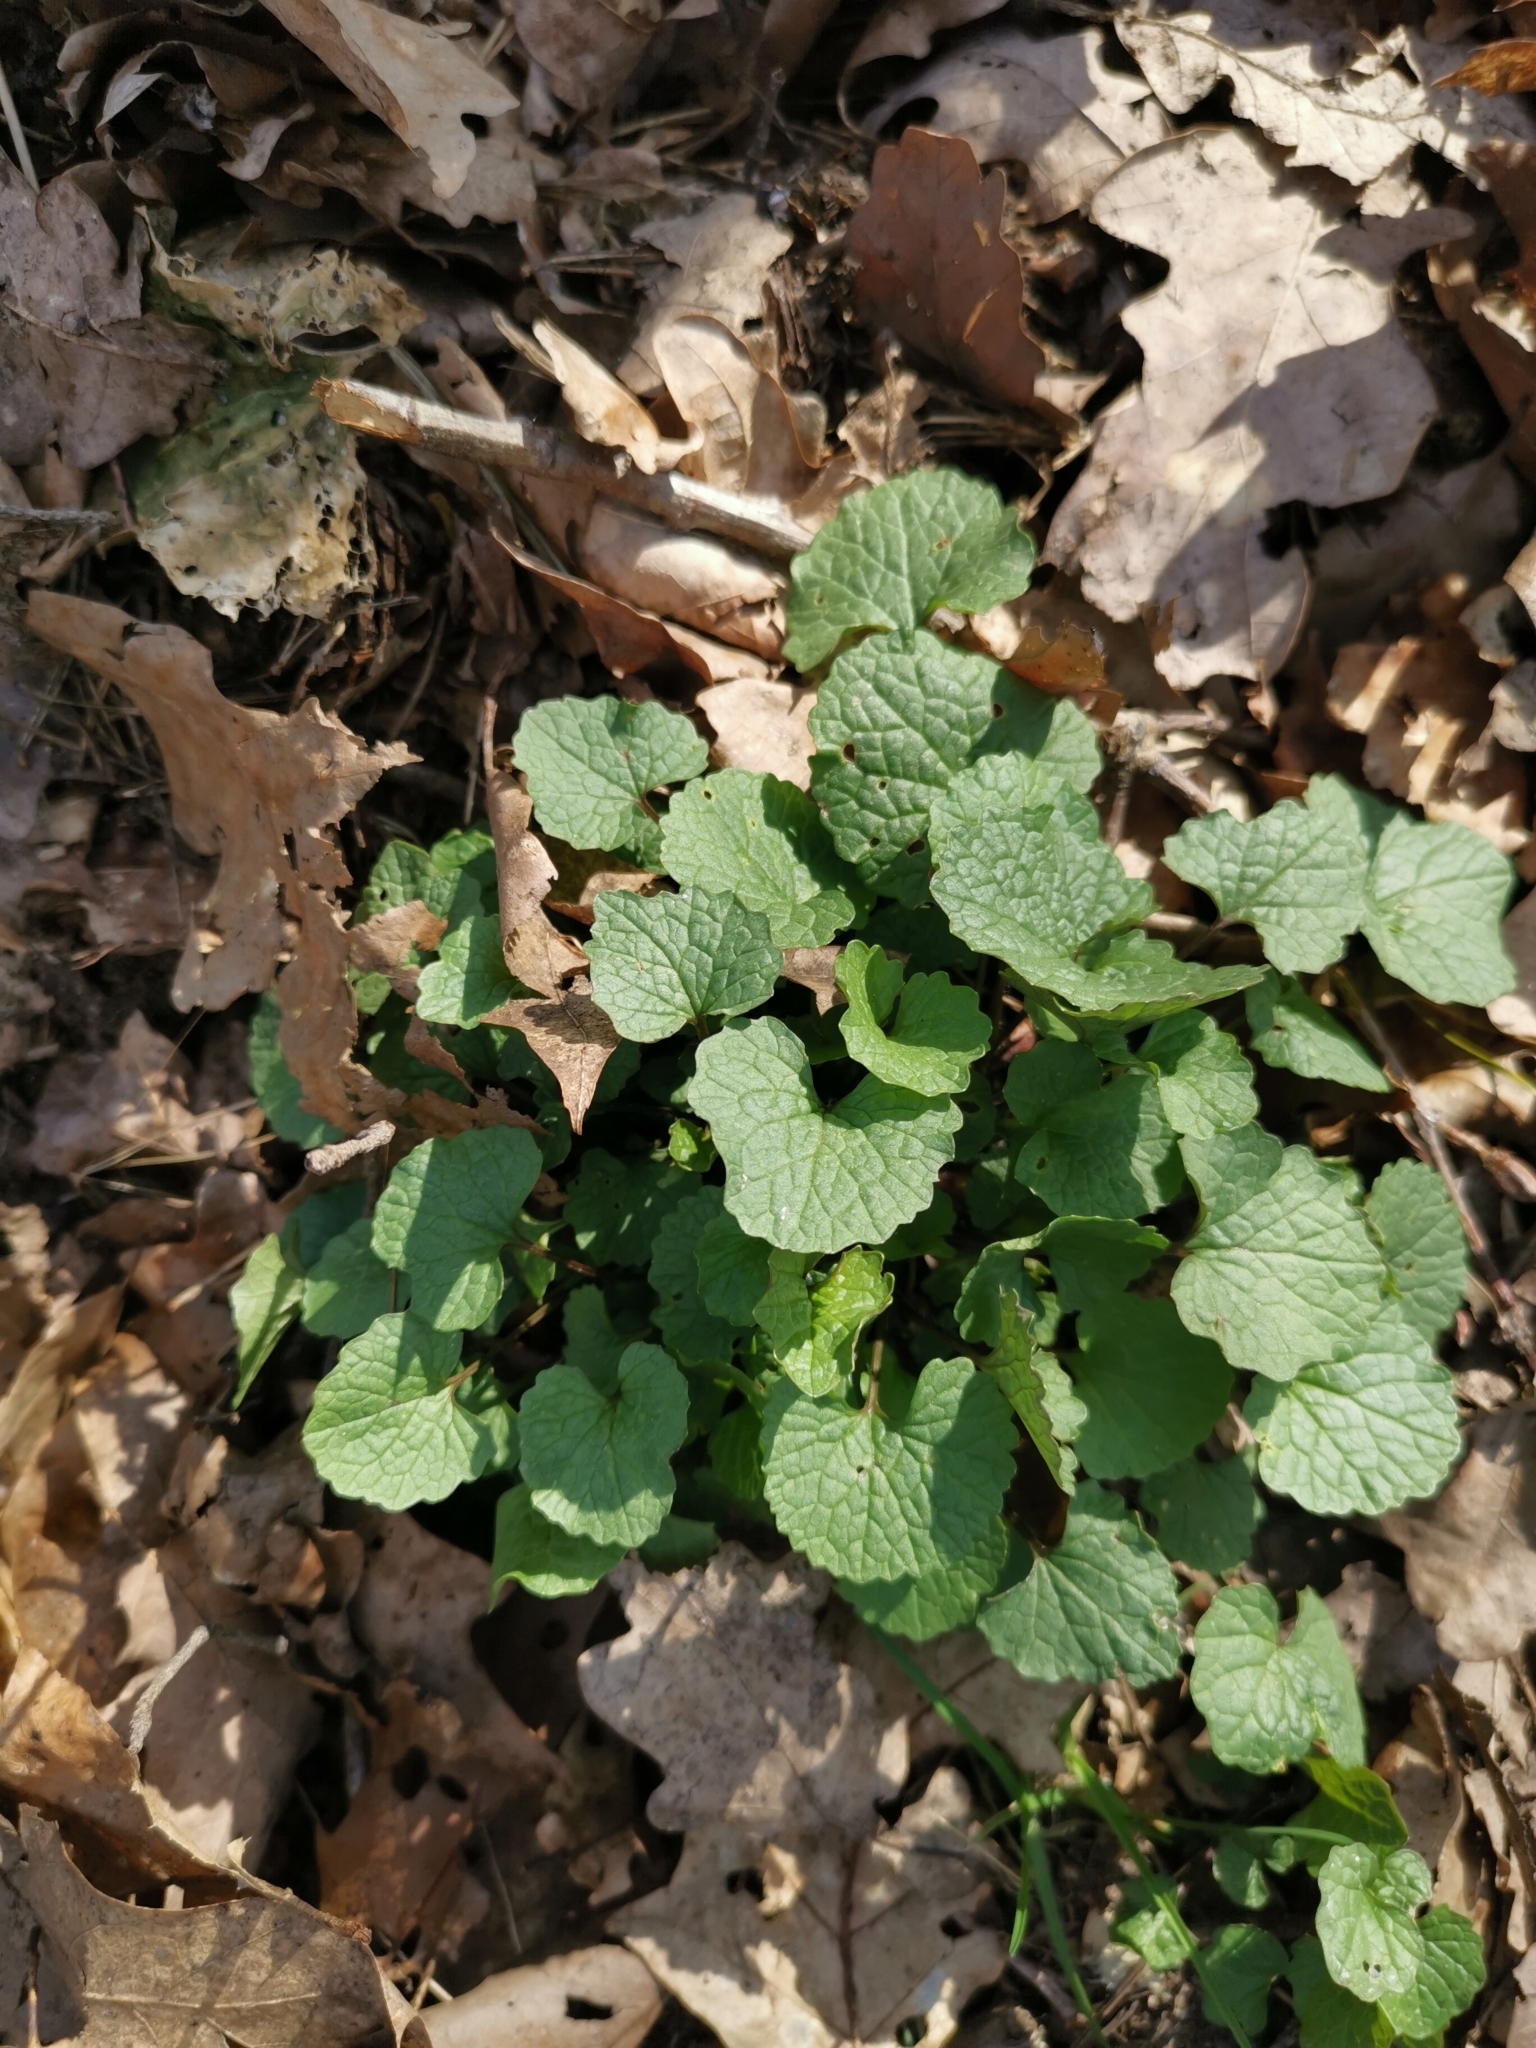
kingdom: Plantae
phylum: Tracheophyta
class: Magnoliopsida
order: Brassicales
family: Brassicaceae
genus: Alliaria
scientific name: Alliaria petiolata
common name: Garlic mustard
